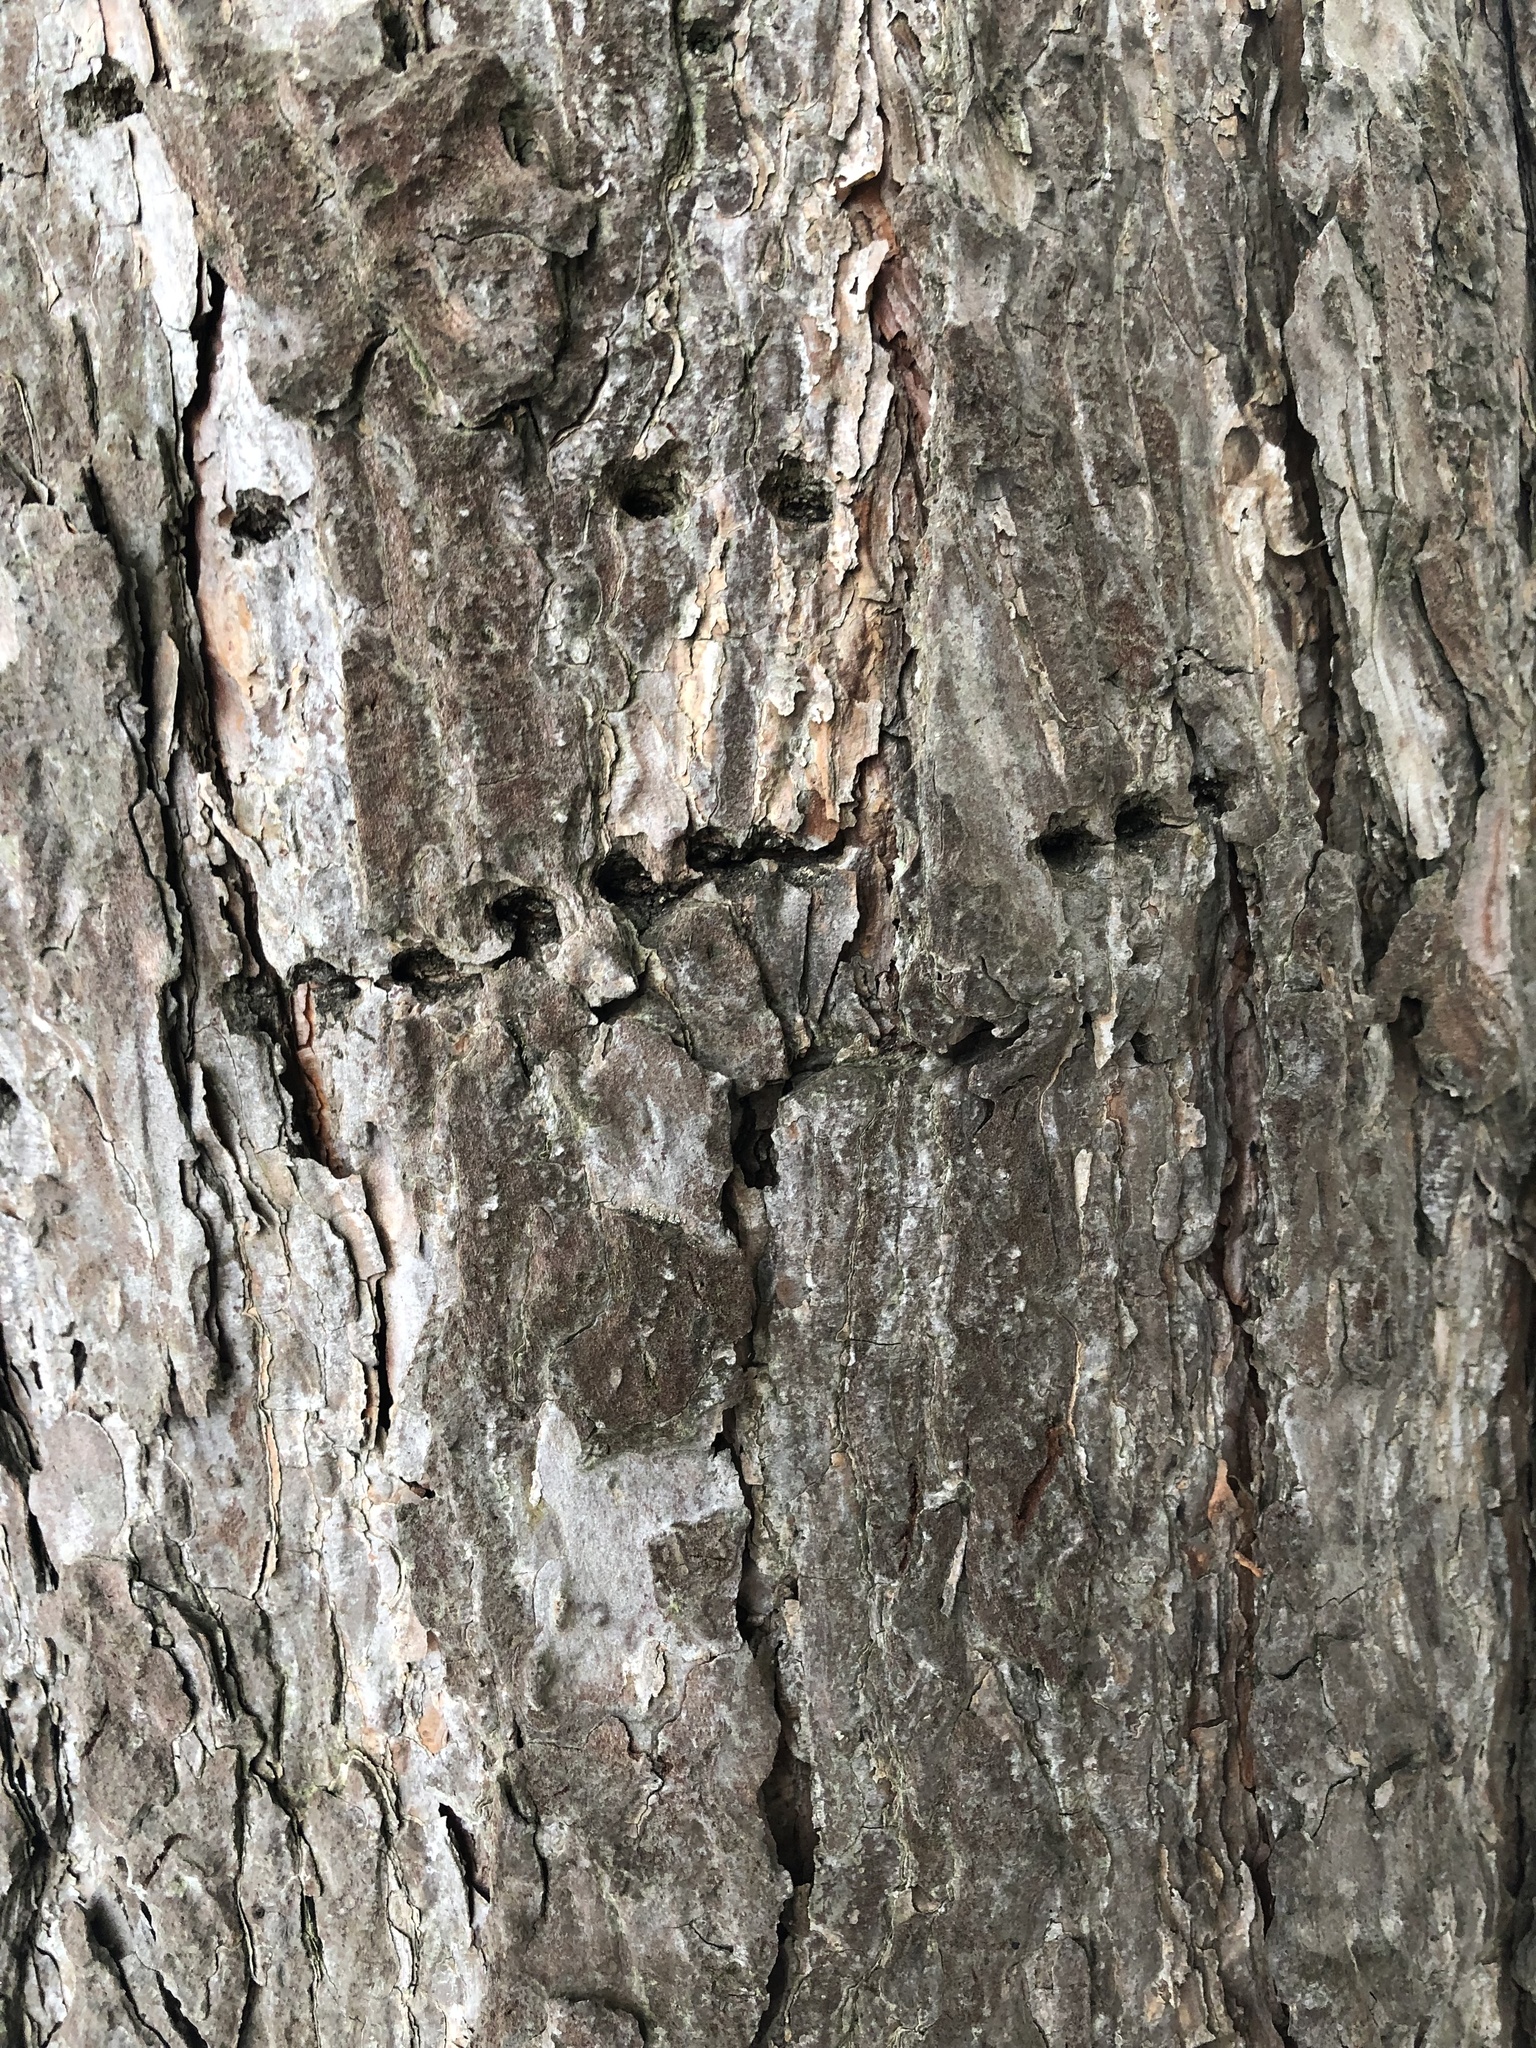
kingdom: Animalia
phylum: Chordata
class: Aves
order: Piciformes
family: Picidae
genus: Sphyrapicus
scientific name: Sphyrapicus varius
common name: Yellow-bellied sapsucker
